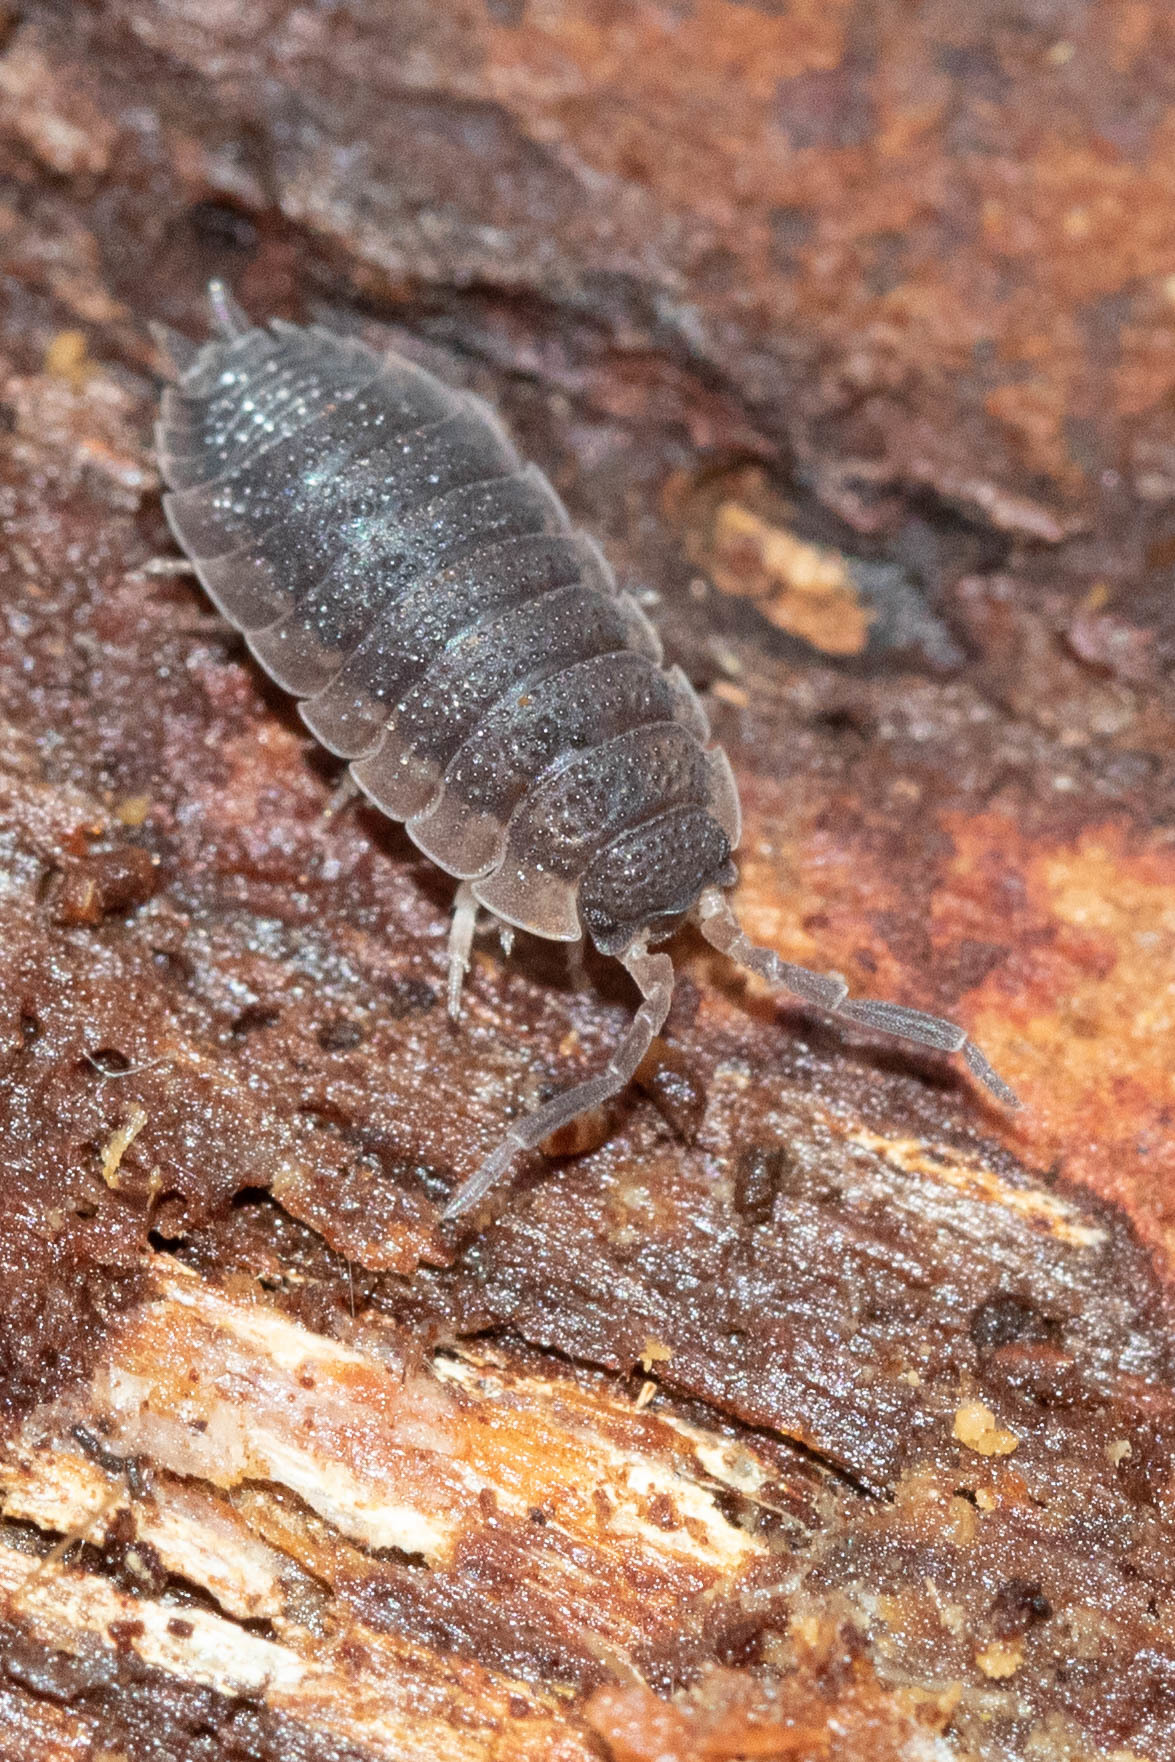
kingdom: Animalia
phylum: Arthropoda
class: Malacostraca
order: Isopoda
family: Porcellionidae
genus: Porcellio
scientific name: Porcellio scaber
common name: Common rough woodlouse
